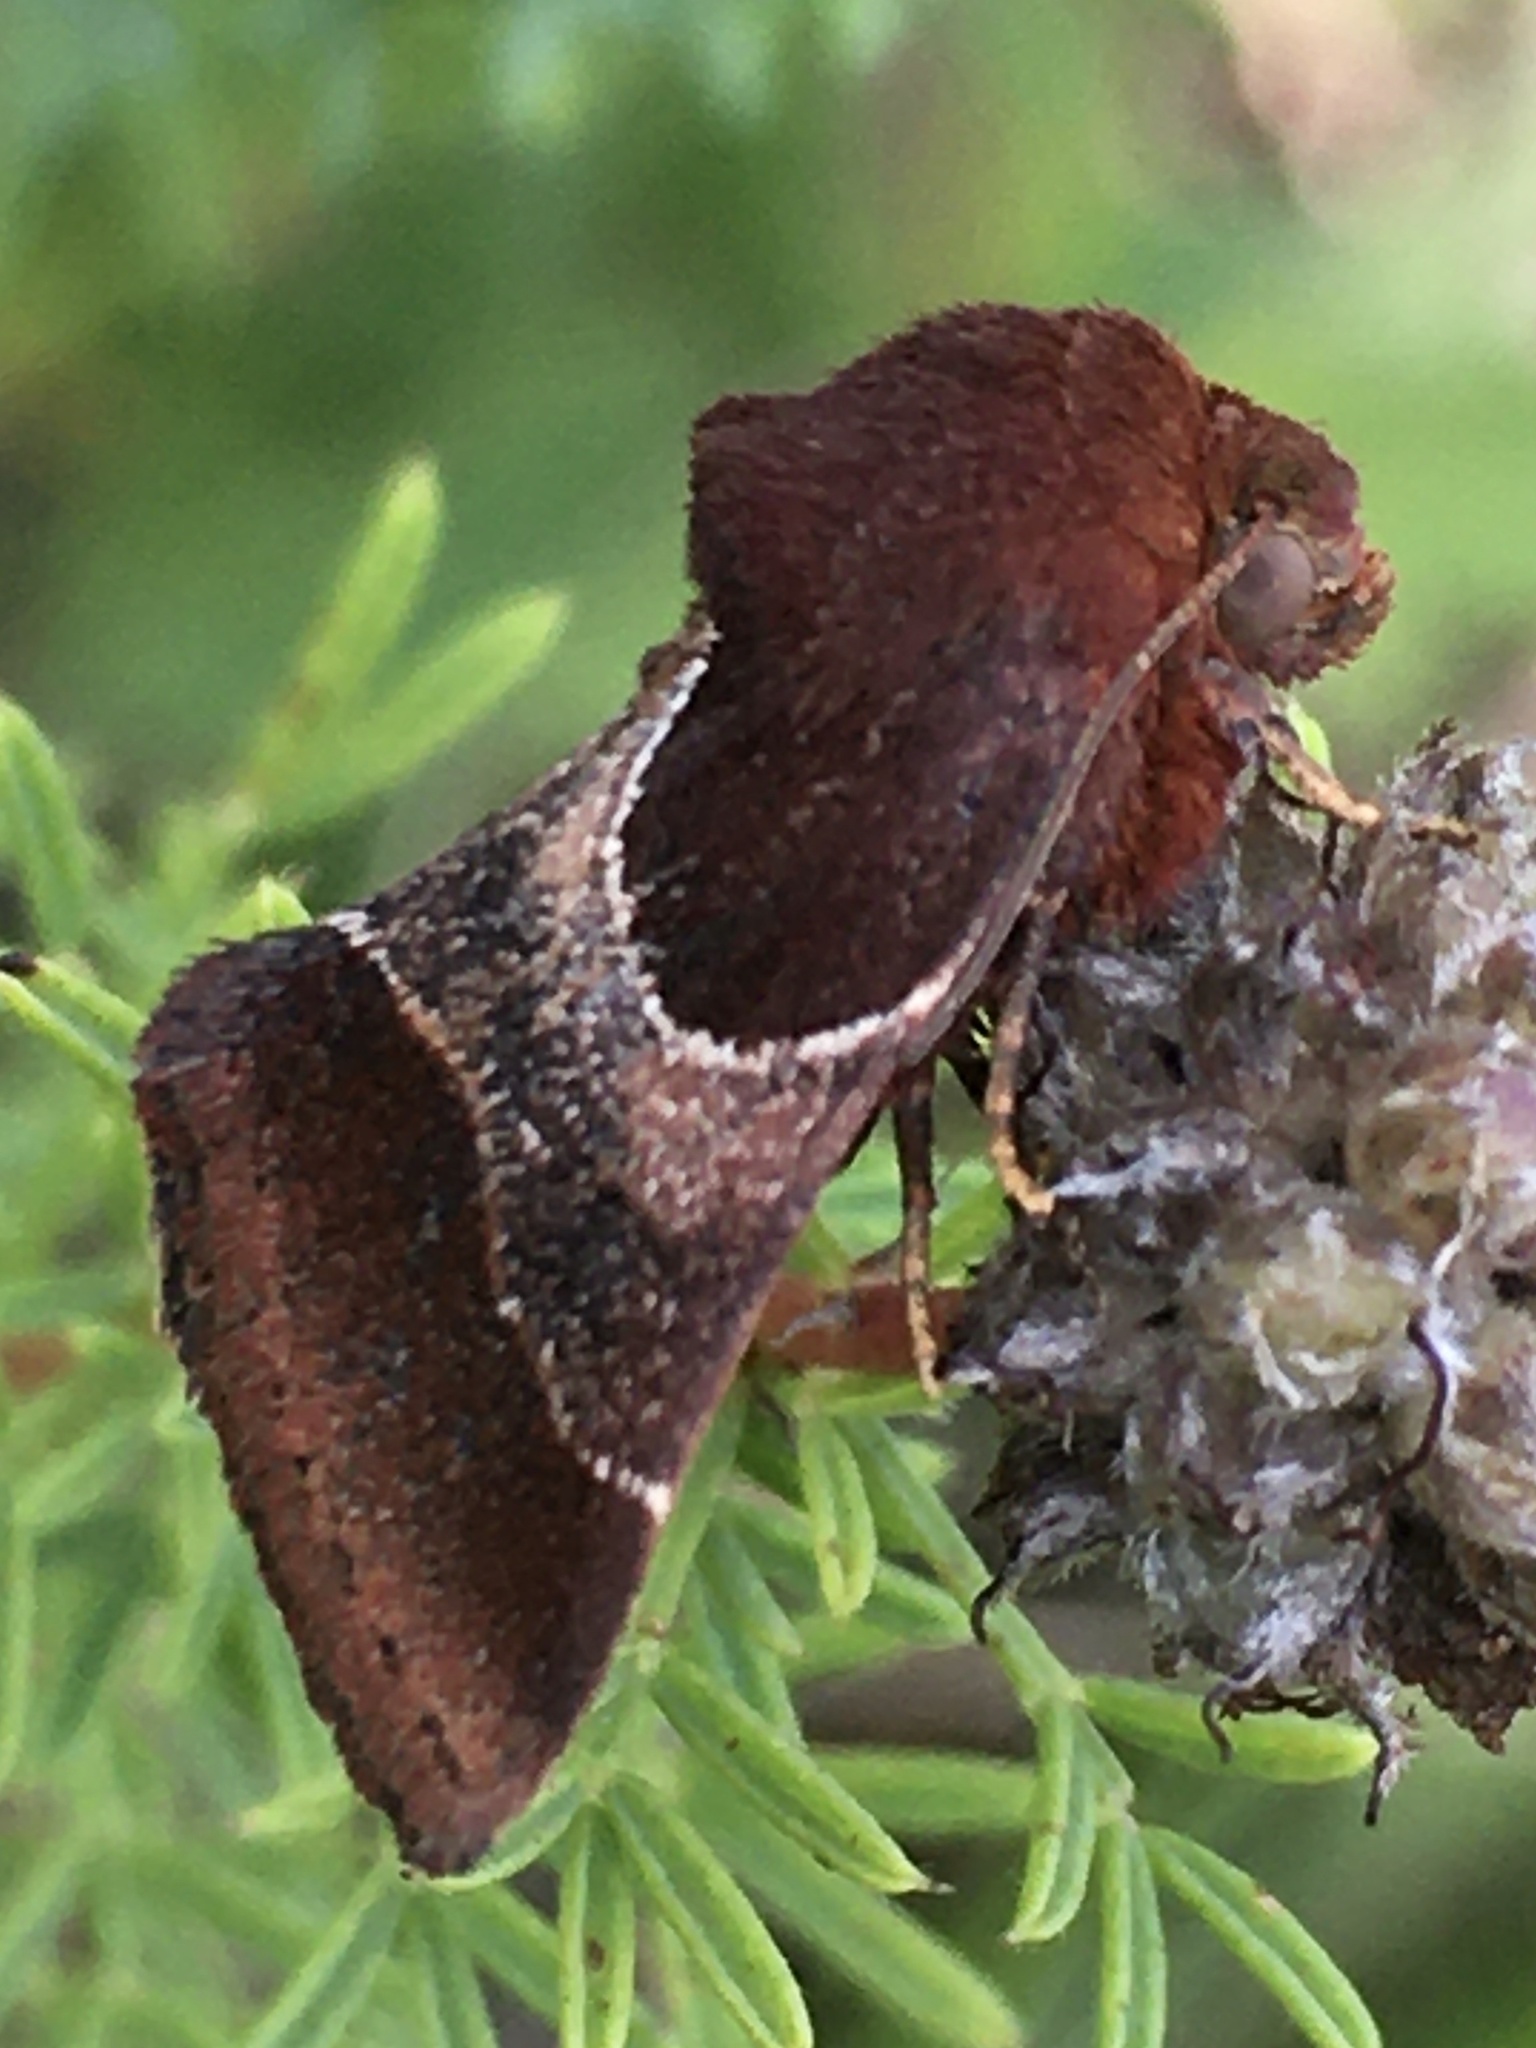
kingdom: Animalia
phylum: Arthropoda
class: Insecta
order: Lepidoptera
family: Noctuidae
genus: Schinia
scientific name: Schinia arcigera
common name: Arcigera flower moth
